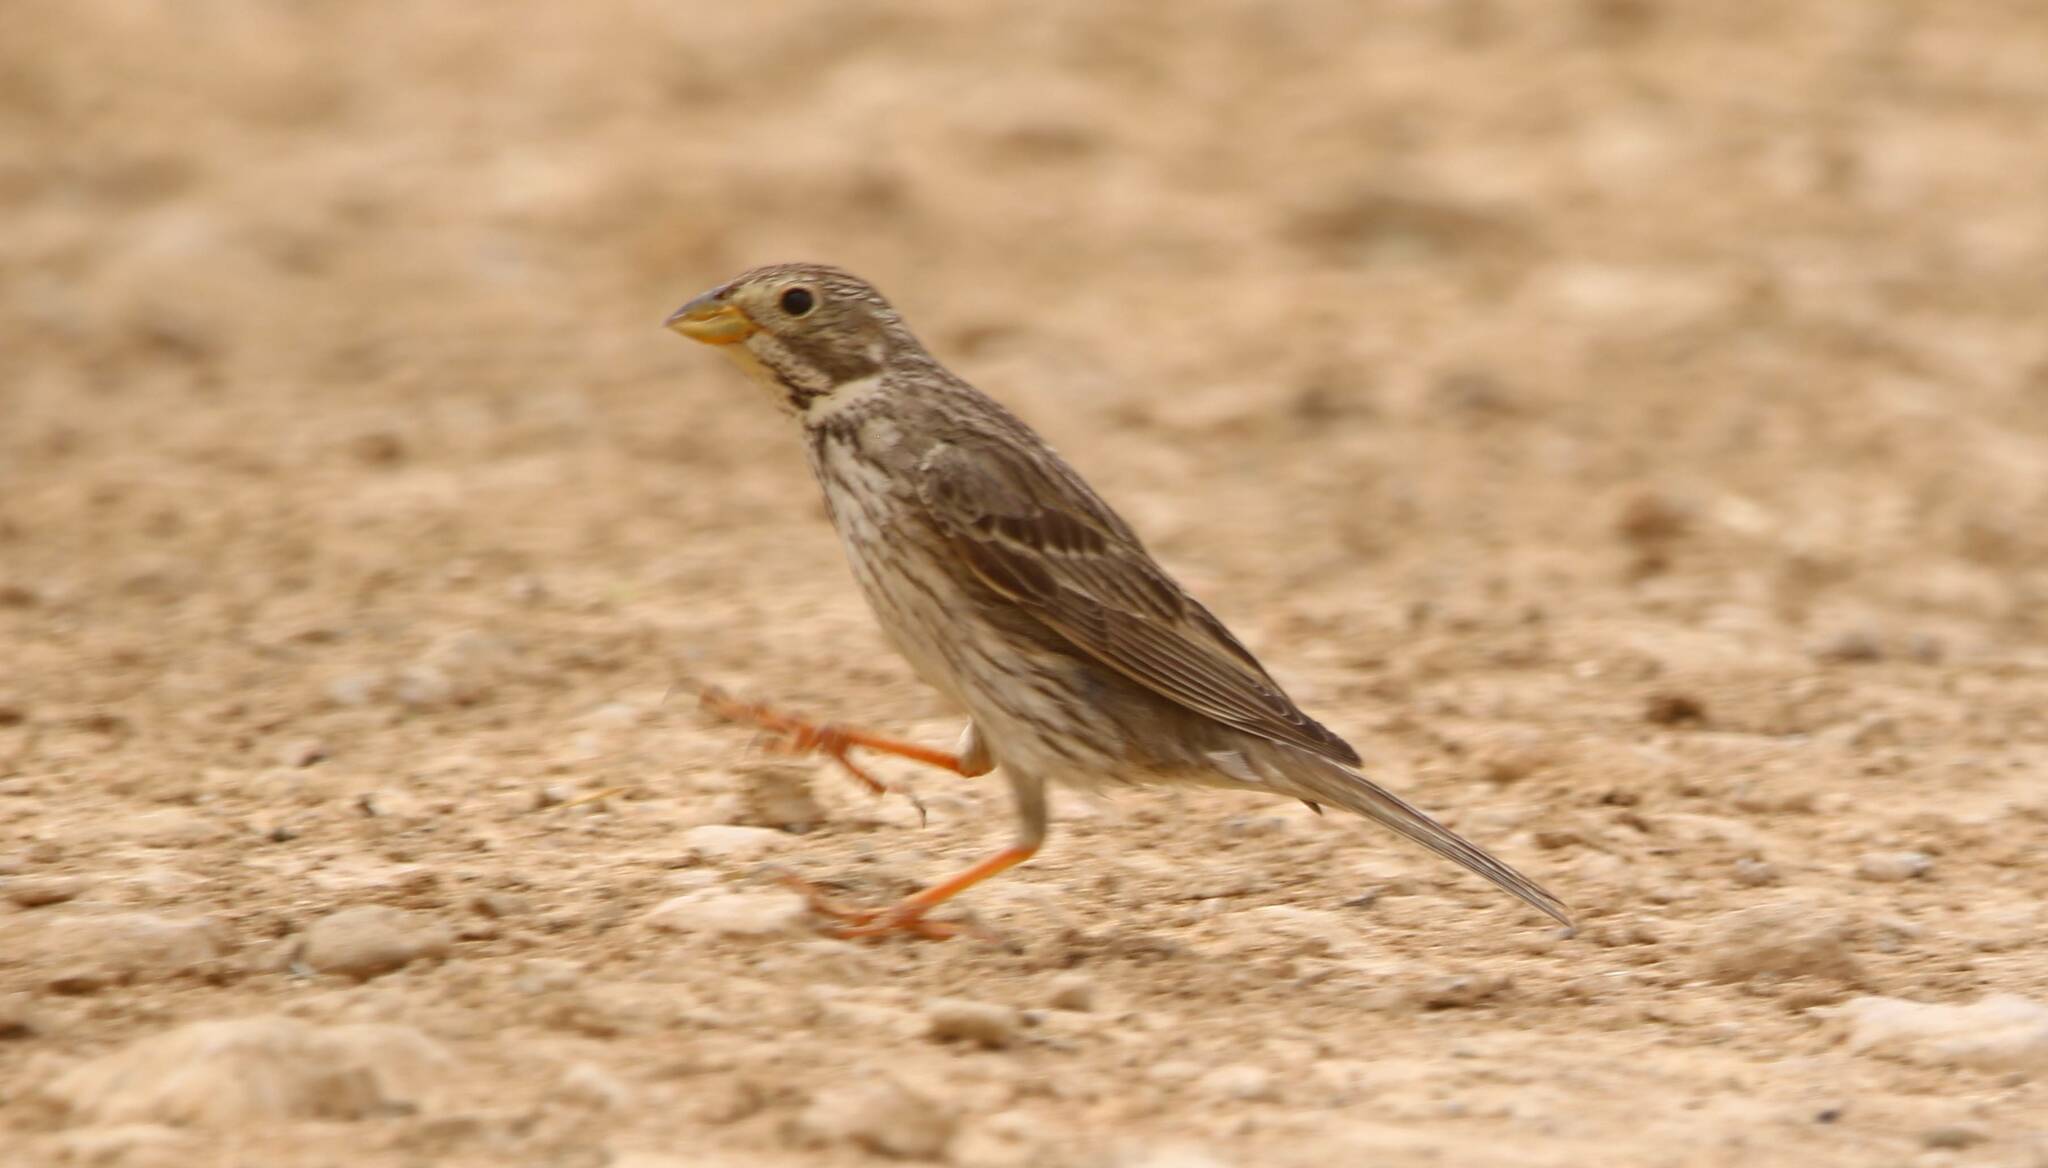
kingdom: Animalia
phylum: Chordata
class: Aves
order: Passeriformes
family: Emberizidae
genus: Emberiza
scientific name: Emberiza calandra
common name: Corn bunting
